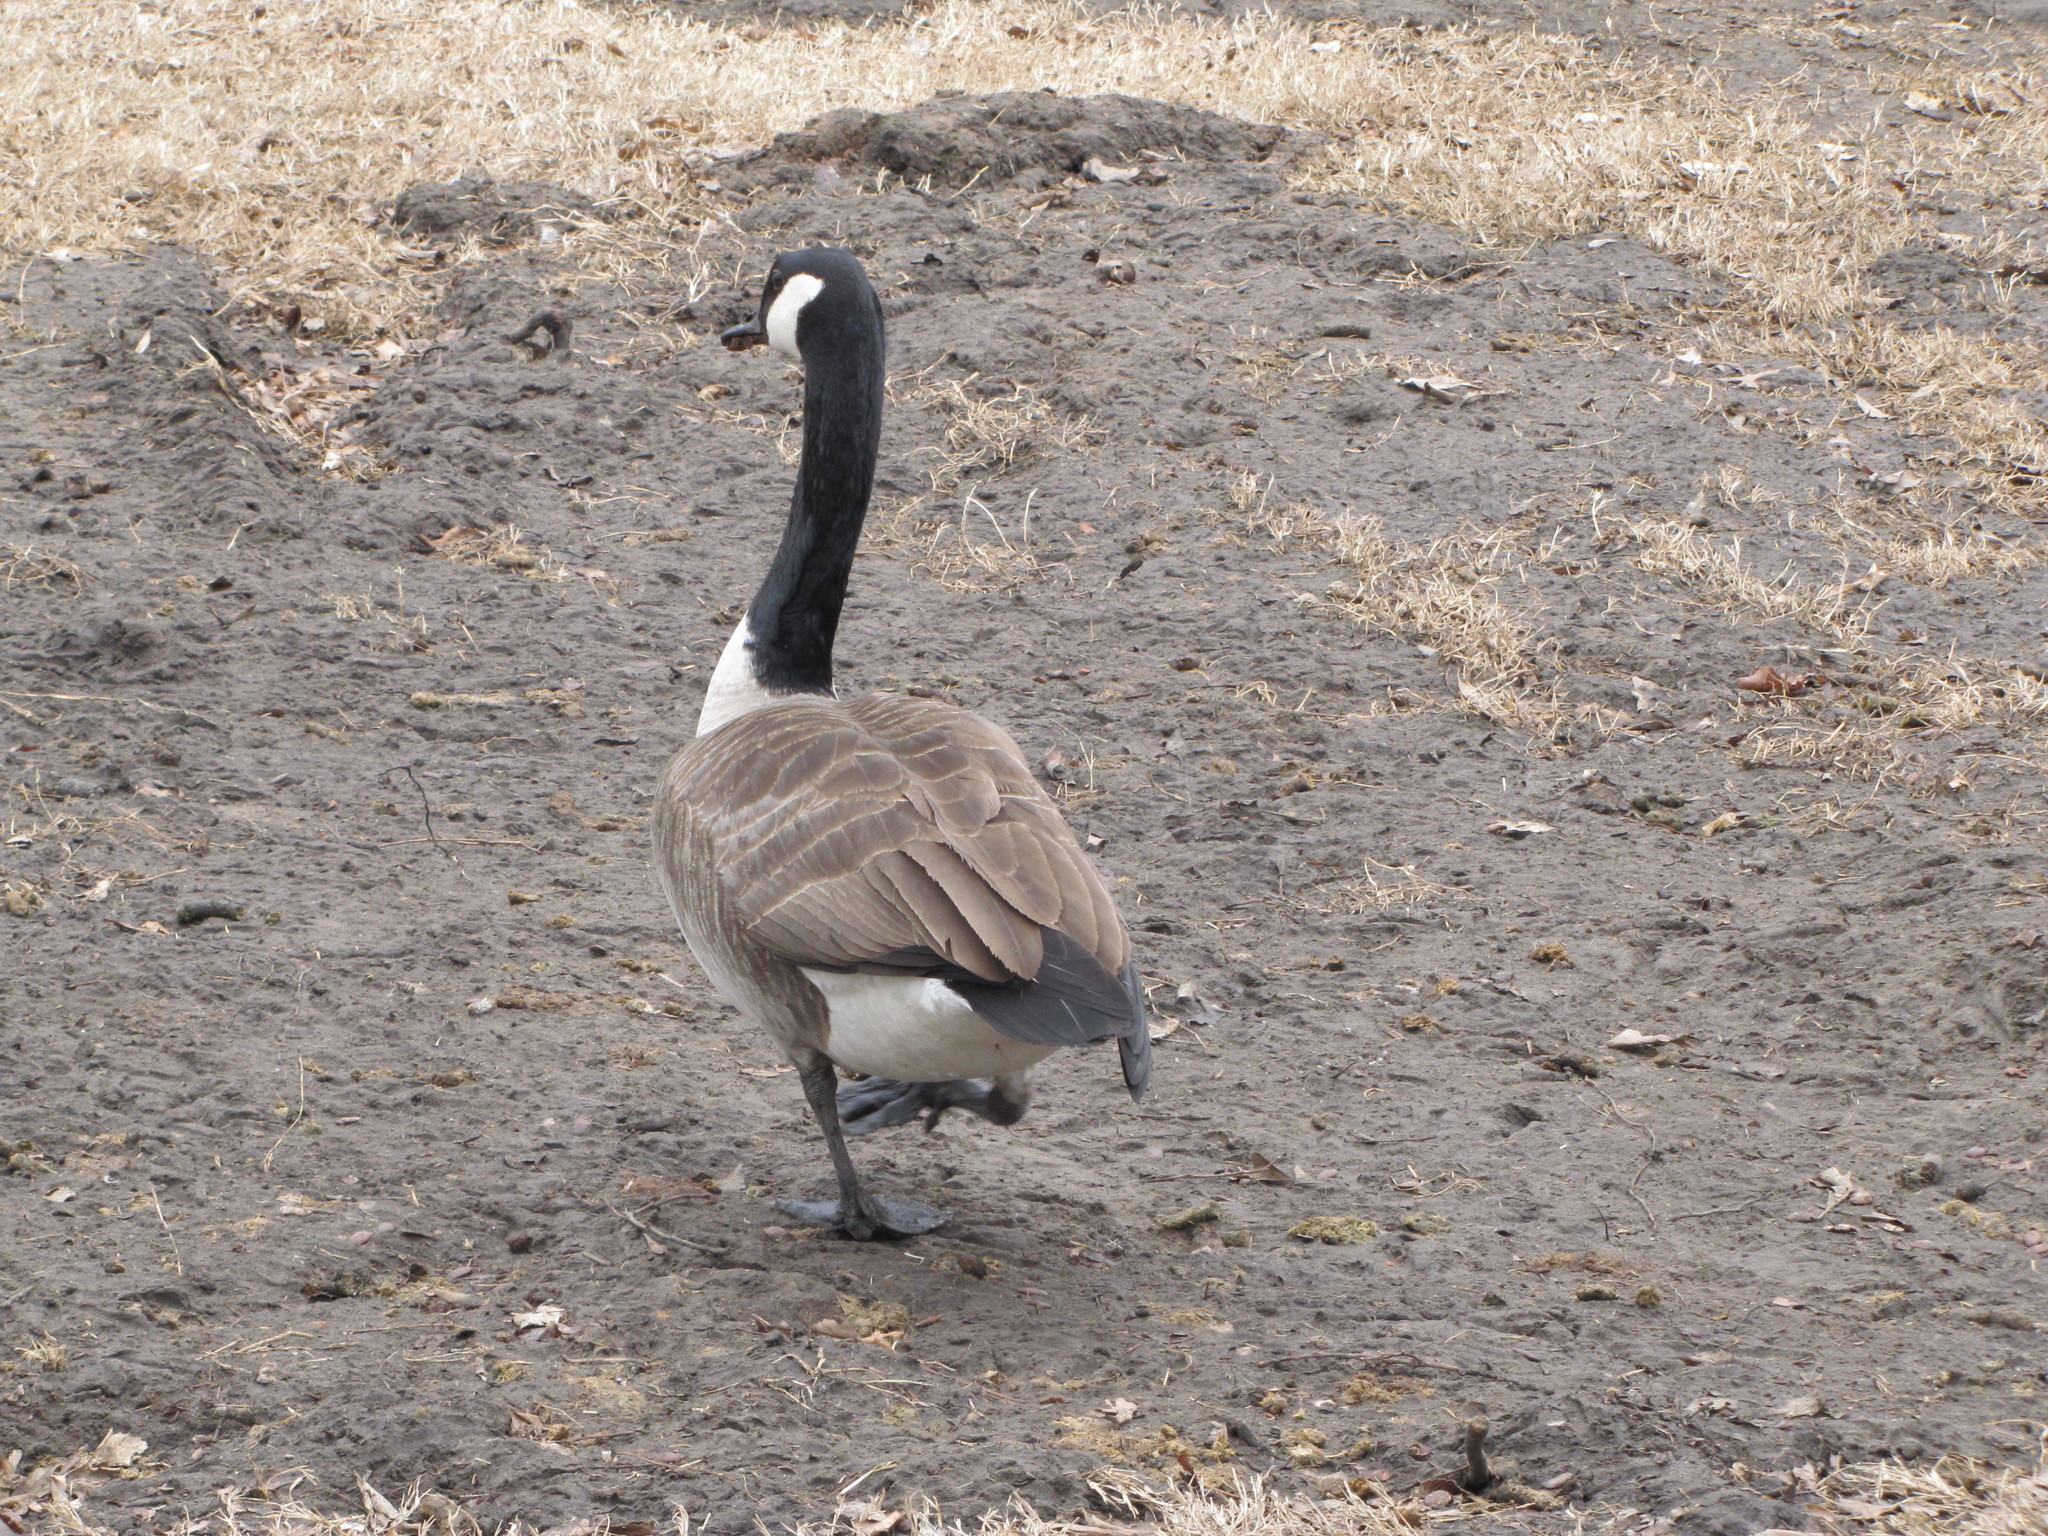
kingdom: Animalia
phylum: Chordata
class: Aves
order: Anseriformes
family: Anatidae
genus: Branta
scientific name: Branta canadensis
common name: Canada goose
